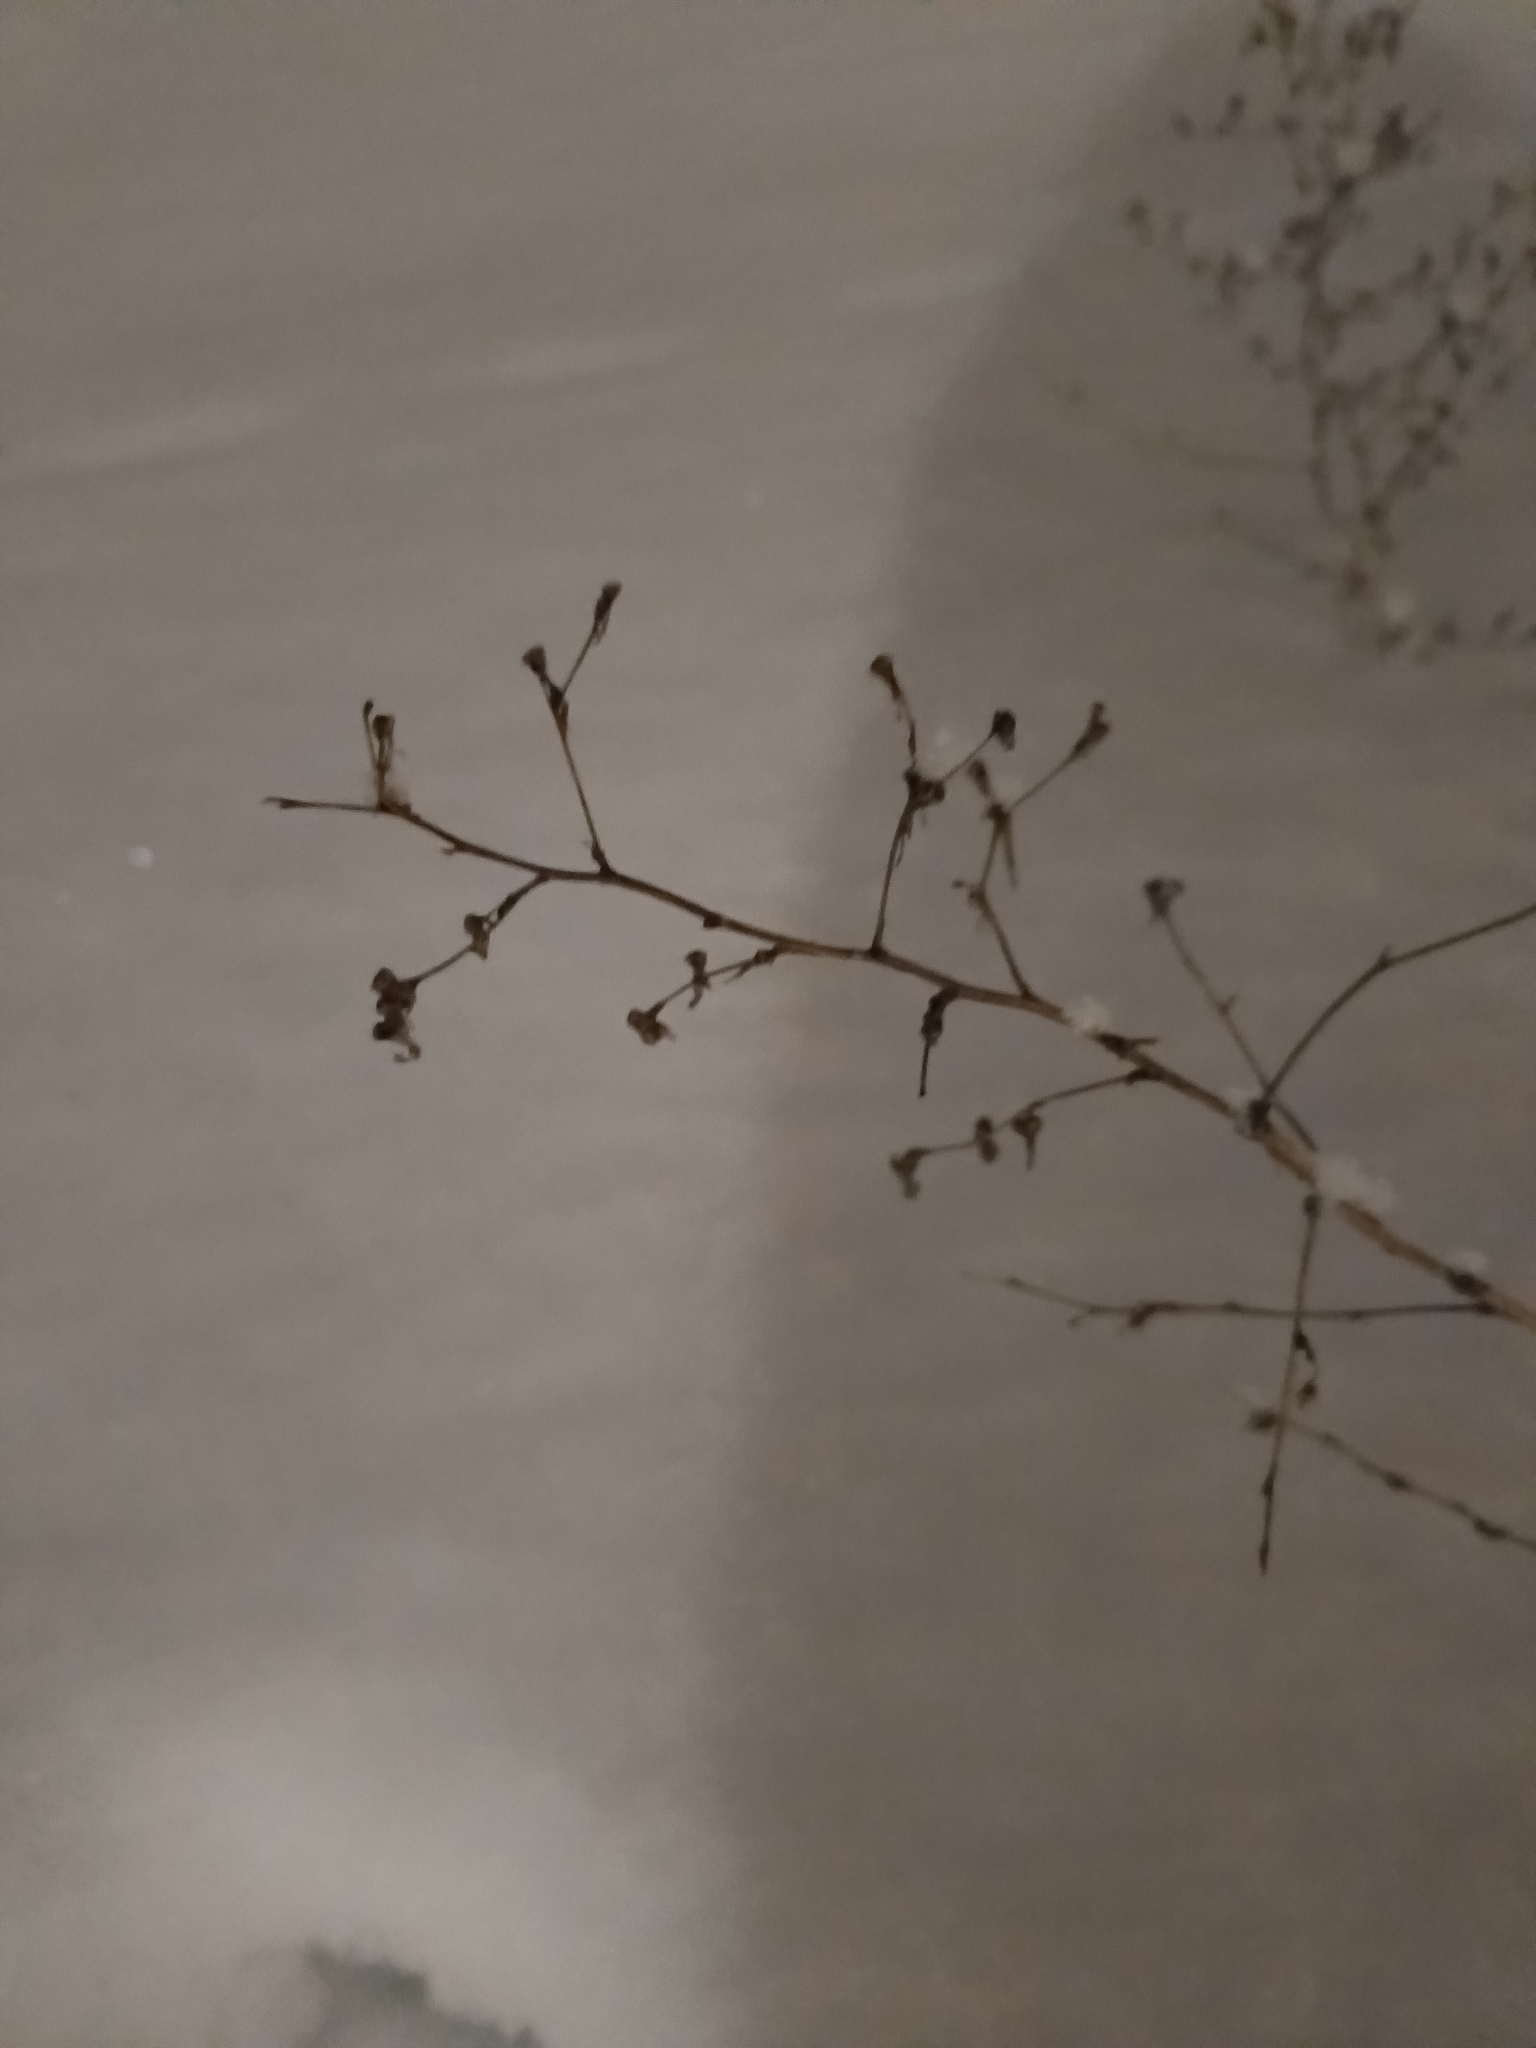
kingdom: Plantae
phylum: Tracheophyta
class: Magnoliopsida
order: Asterales
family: Asteraceae
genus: Lactuca
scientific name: Lactuca serriola
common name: Prickly lettuce
